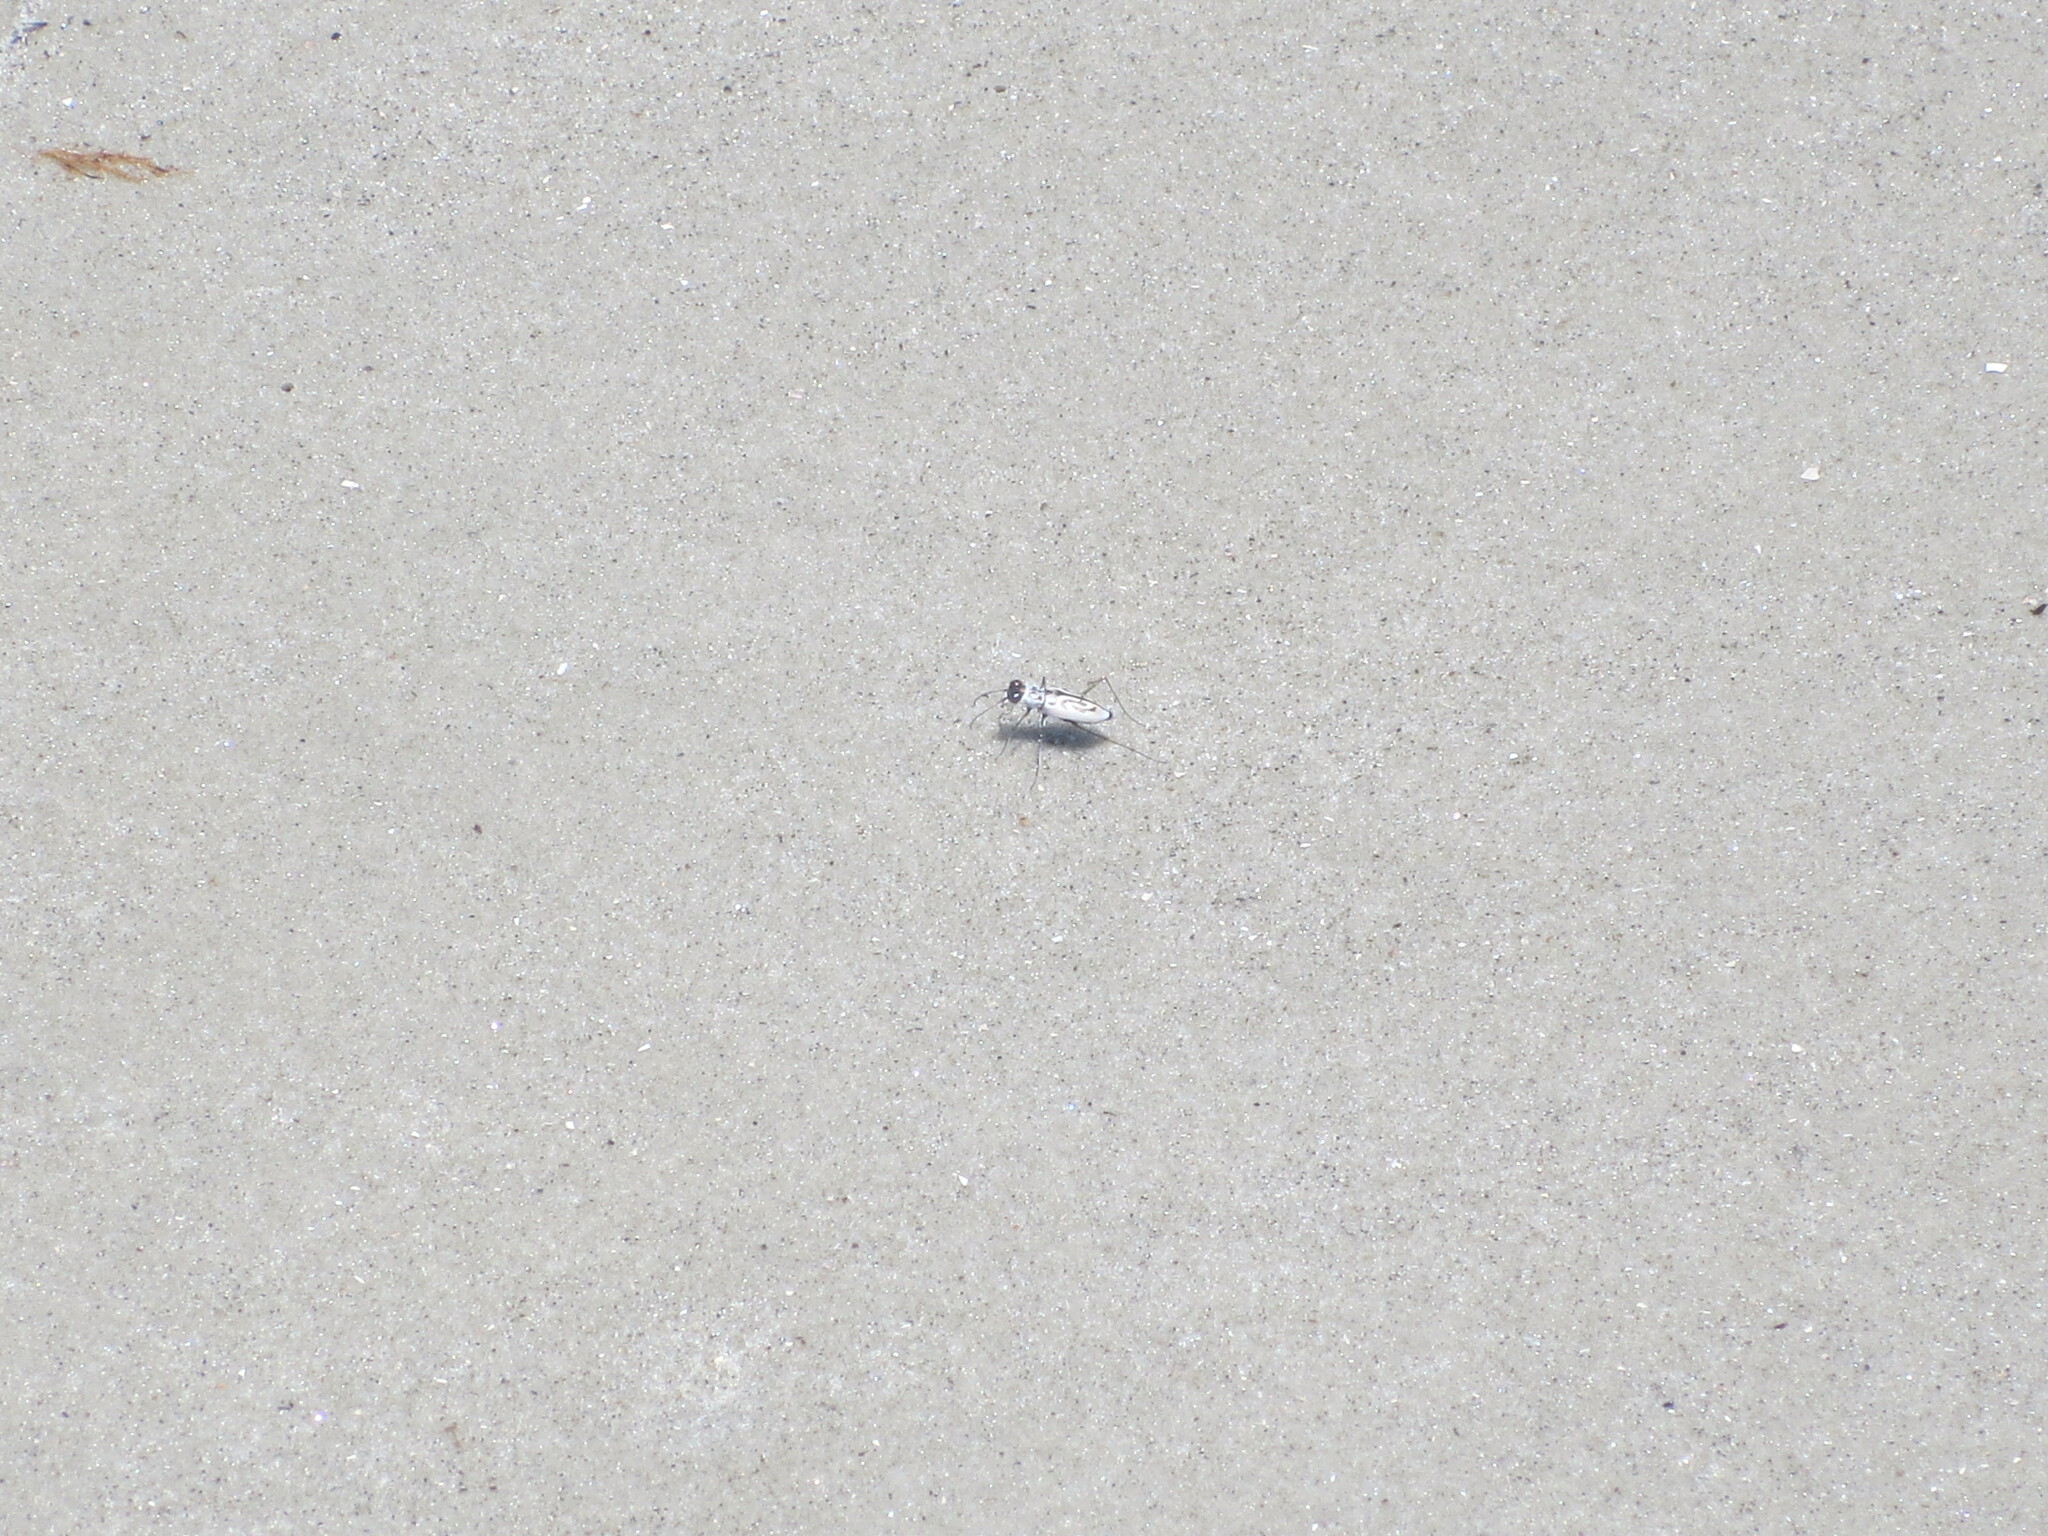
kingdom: Animalia
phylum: Arthropoda
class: Insecta
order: Coleoptera
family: Carabidae
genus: Habroscelimorpha
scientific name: Habroscelimorpha dorsalis
